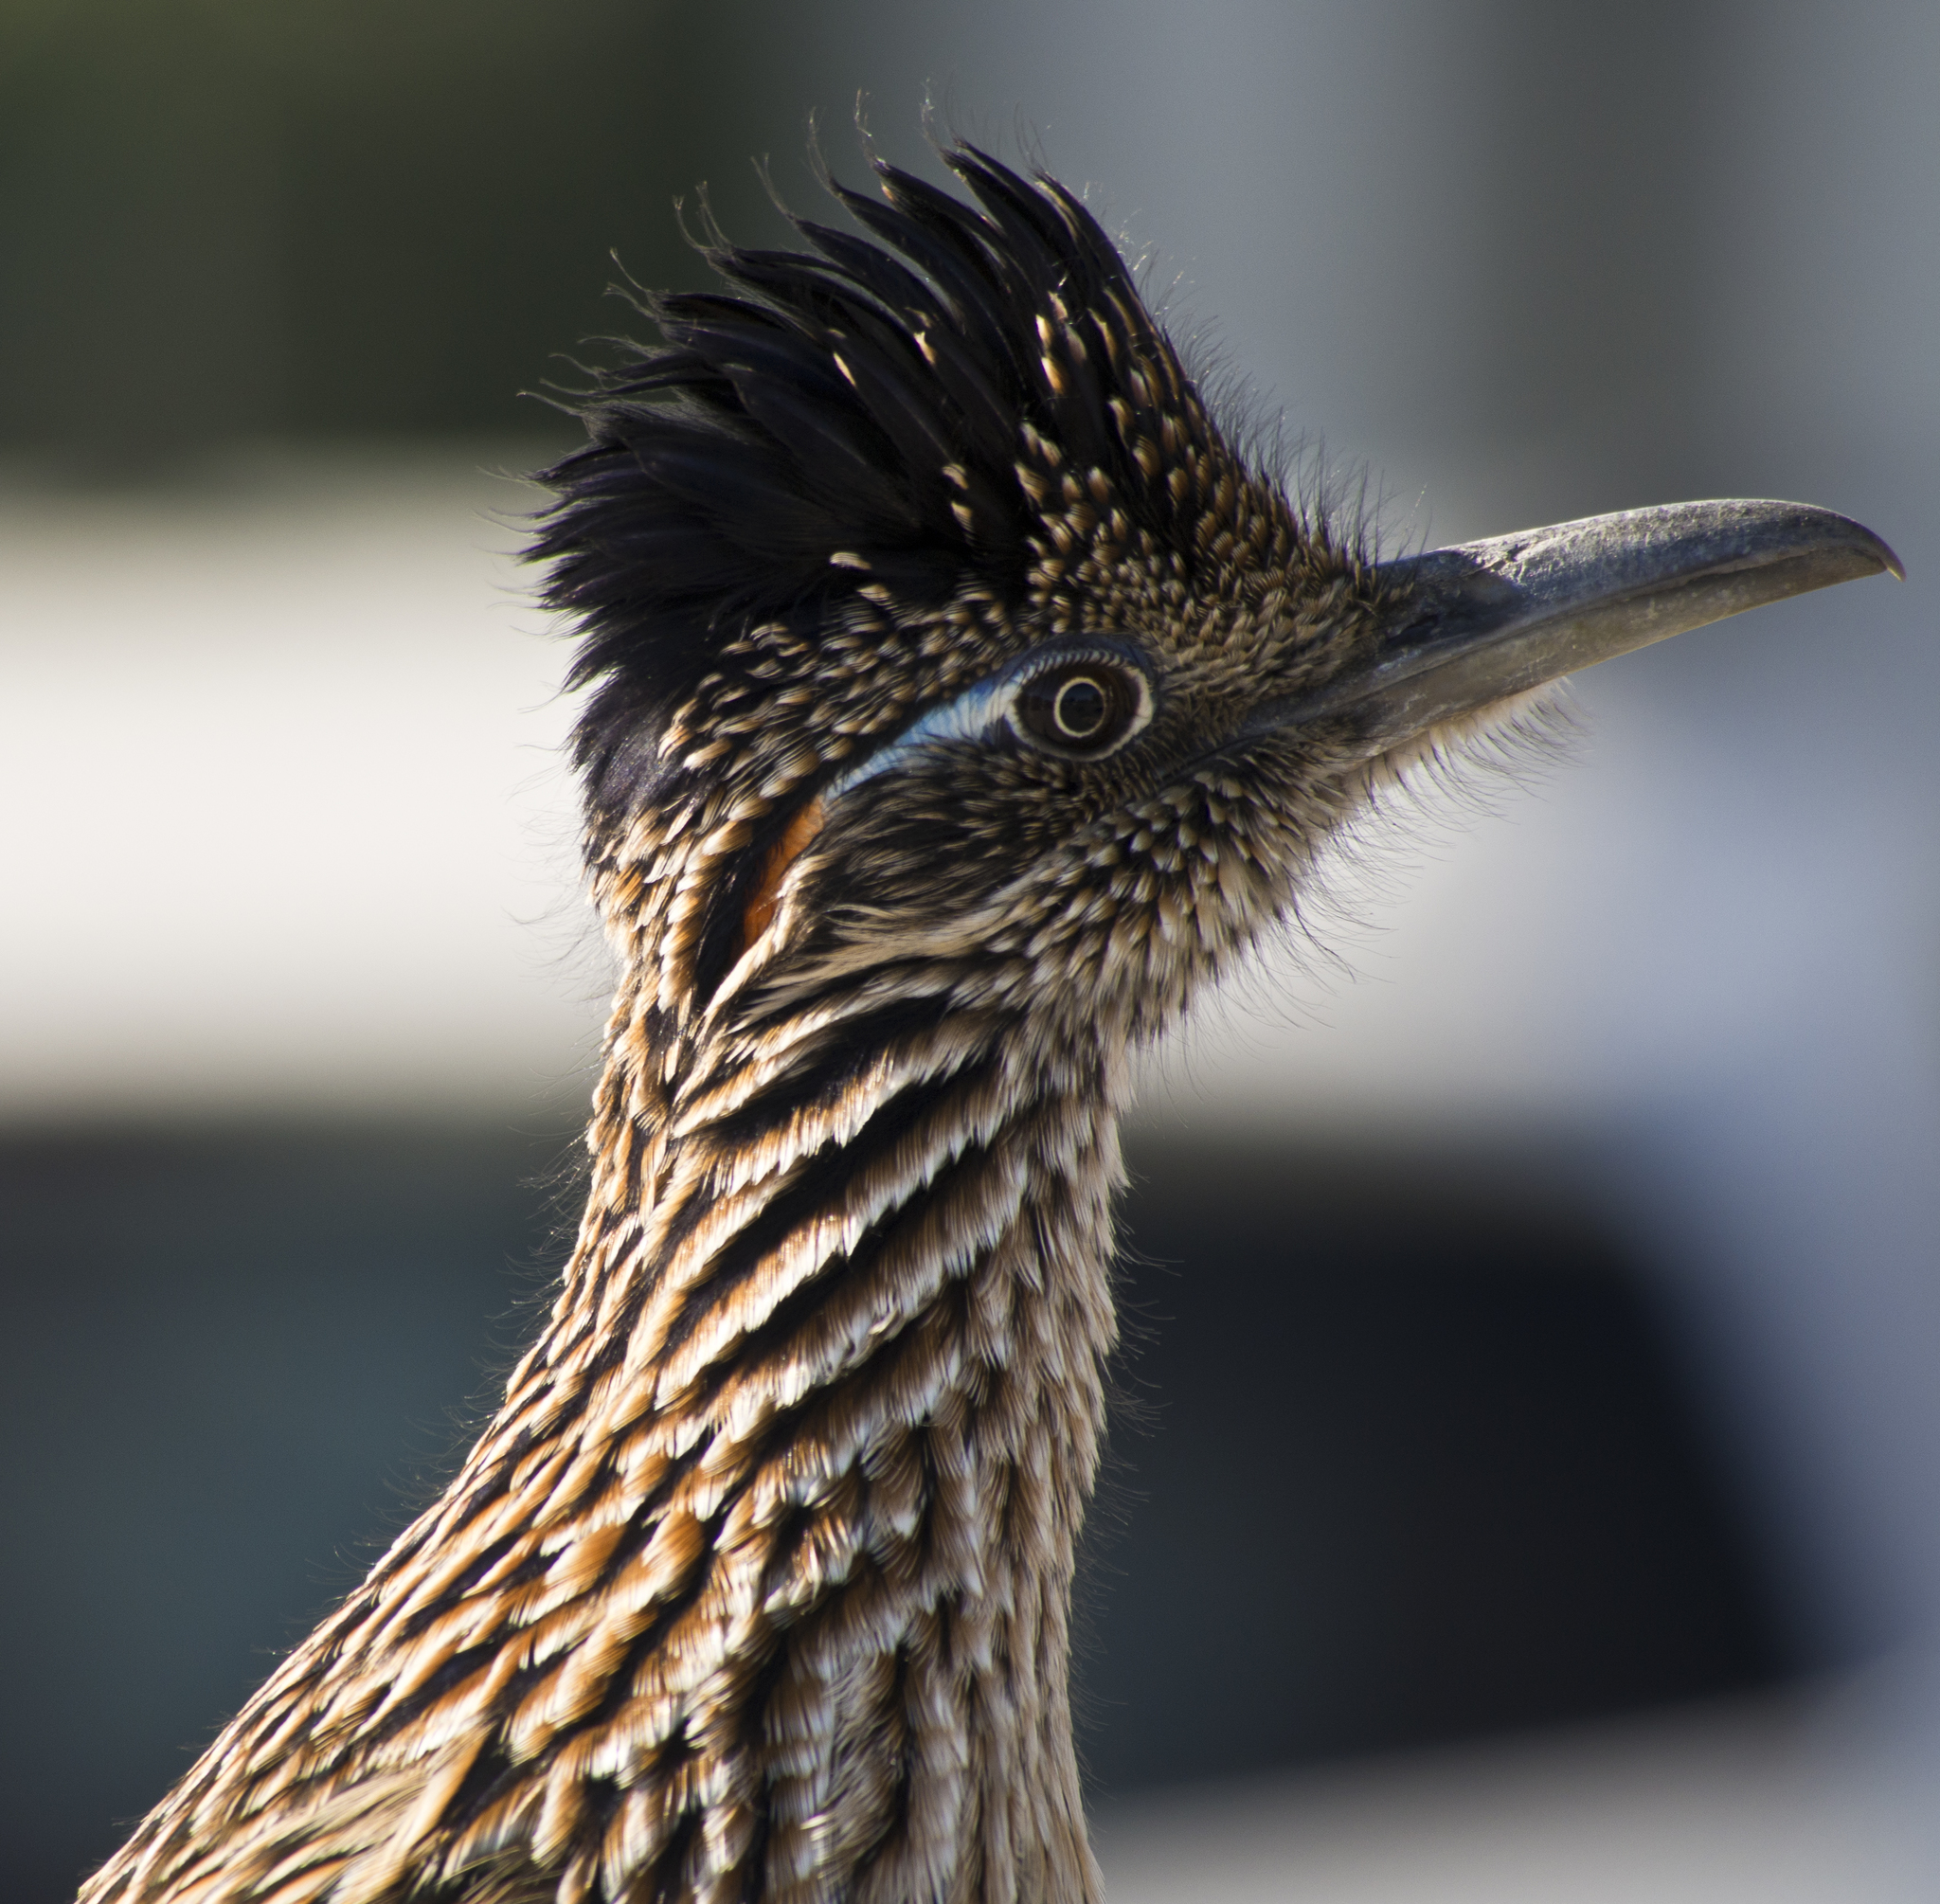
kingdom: Animalia
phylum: Chordata
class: Aves
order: Cuculiformes
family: Cuculidae
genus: Geococcyx
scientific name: Geococcyx californianus
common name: Greater roadrunner
